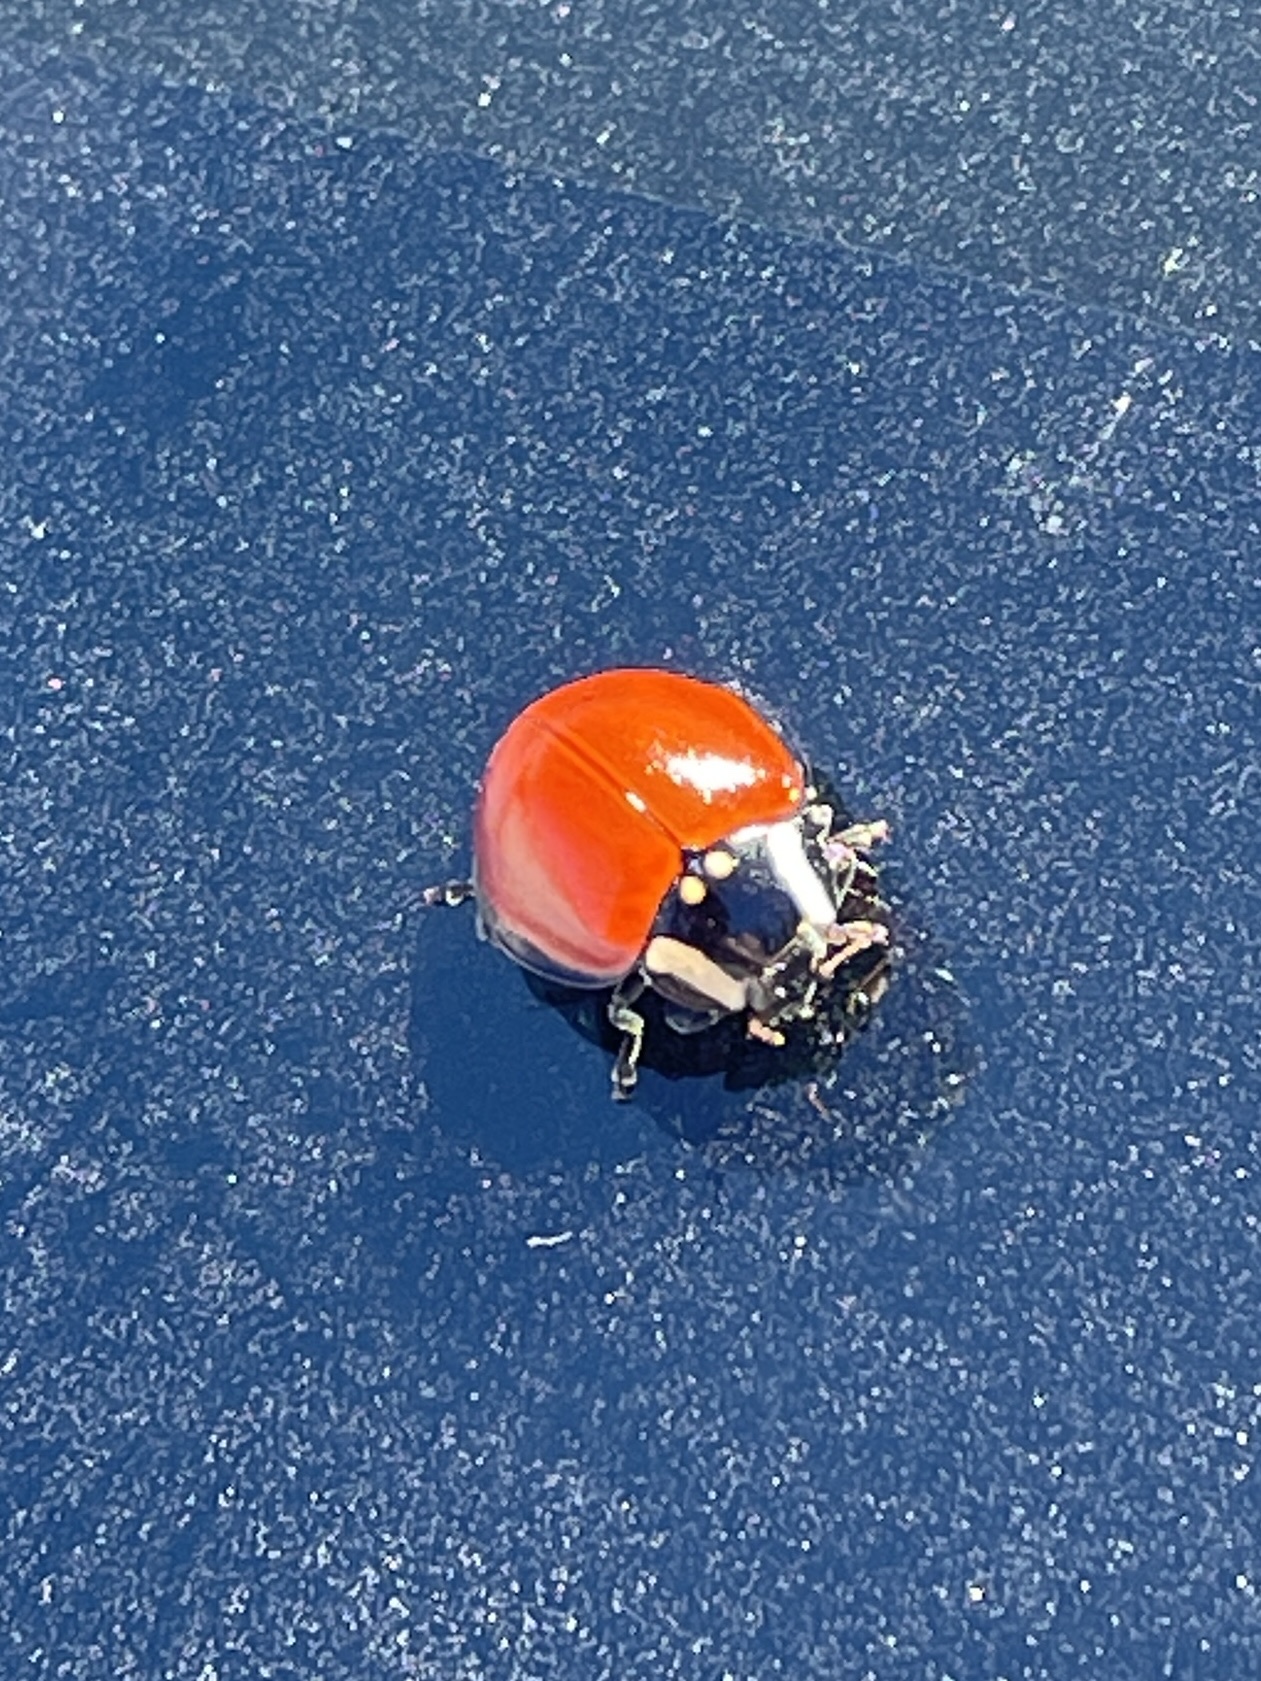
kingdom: Animalia
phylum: Arthropoda
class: Insecta
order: Coleoptera
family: Coccinellidae
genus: Anatis
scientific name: Anatis lecontei
